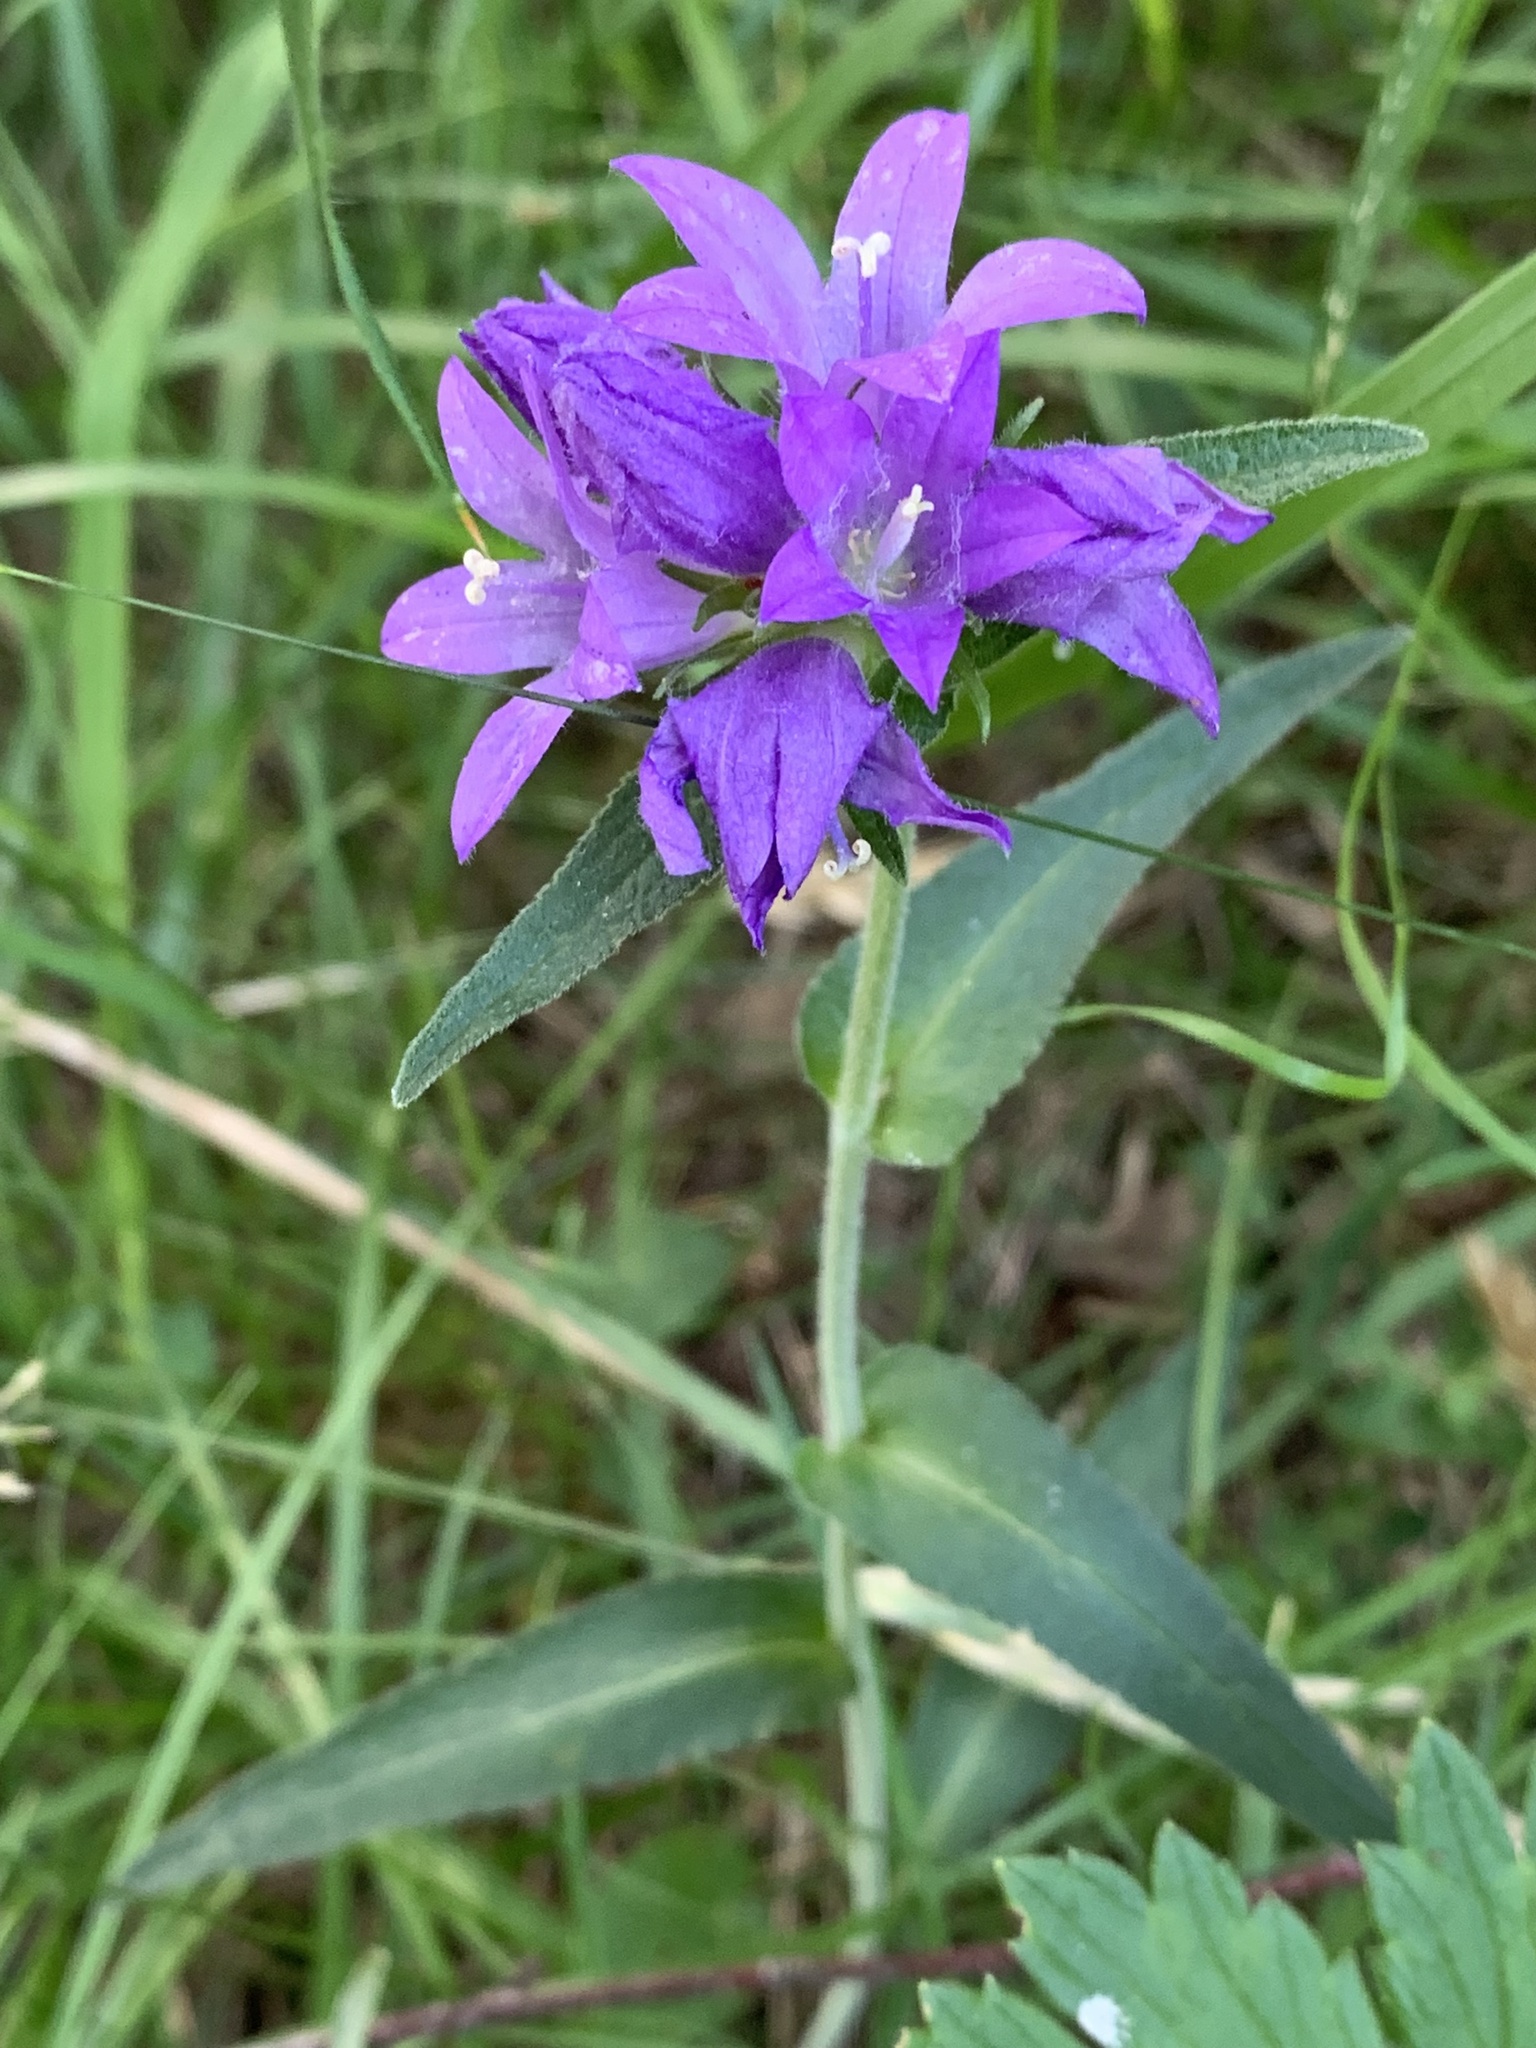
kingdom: Plantae
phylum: Tracheophyta
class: Magnoliopsida
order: Asterales
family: Campanulaceae
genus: Campanula
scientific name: Campanula glomerata
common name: Clustered bellflower
